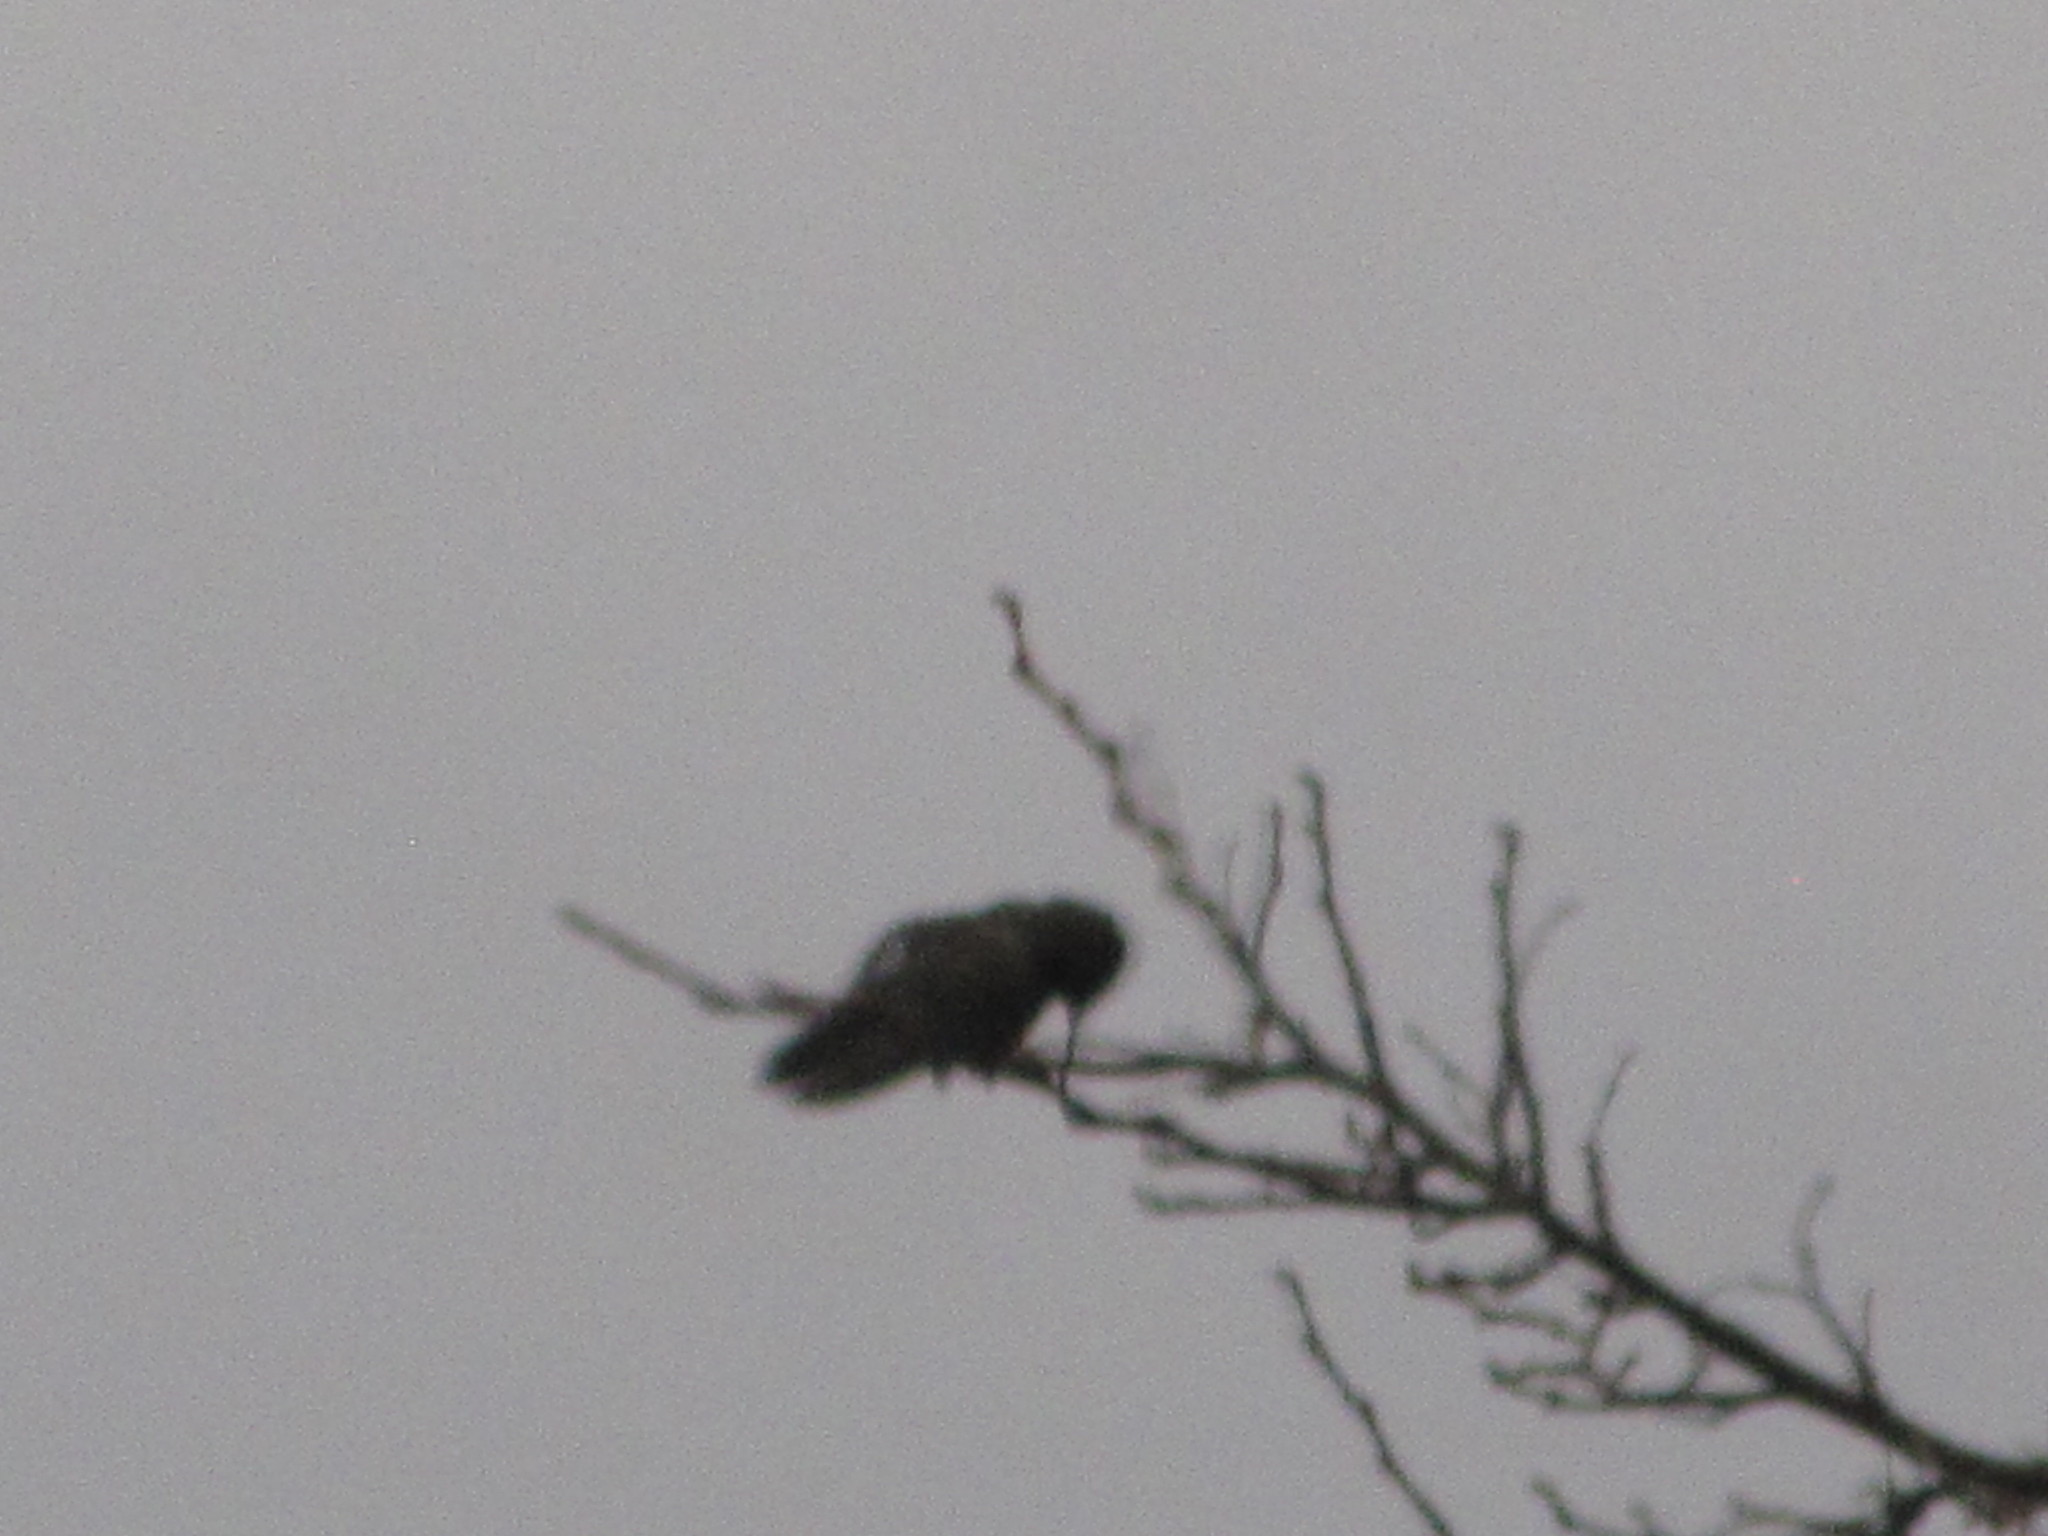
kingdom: Animalia
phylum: Chordata
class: Aves
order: Apodiformes
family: Trochilidae
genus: Calypte
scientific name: Calypte anna
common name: Anna's hummingbird
